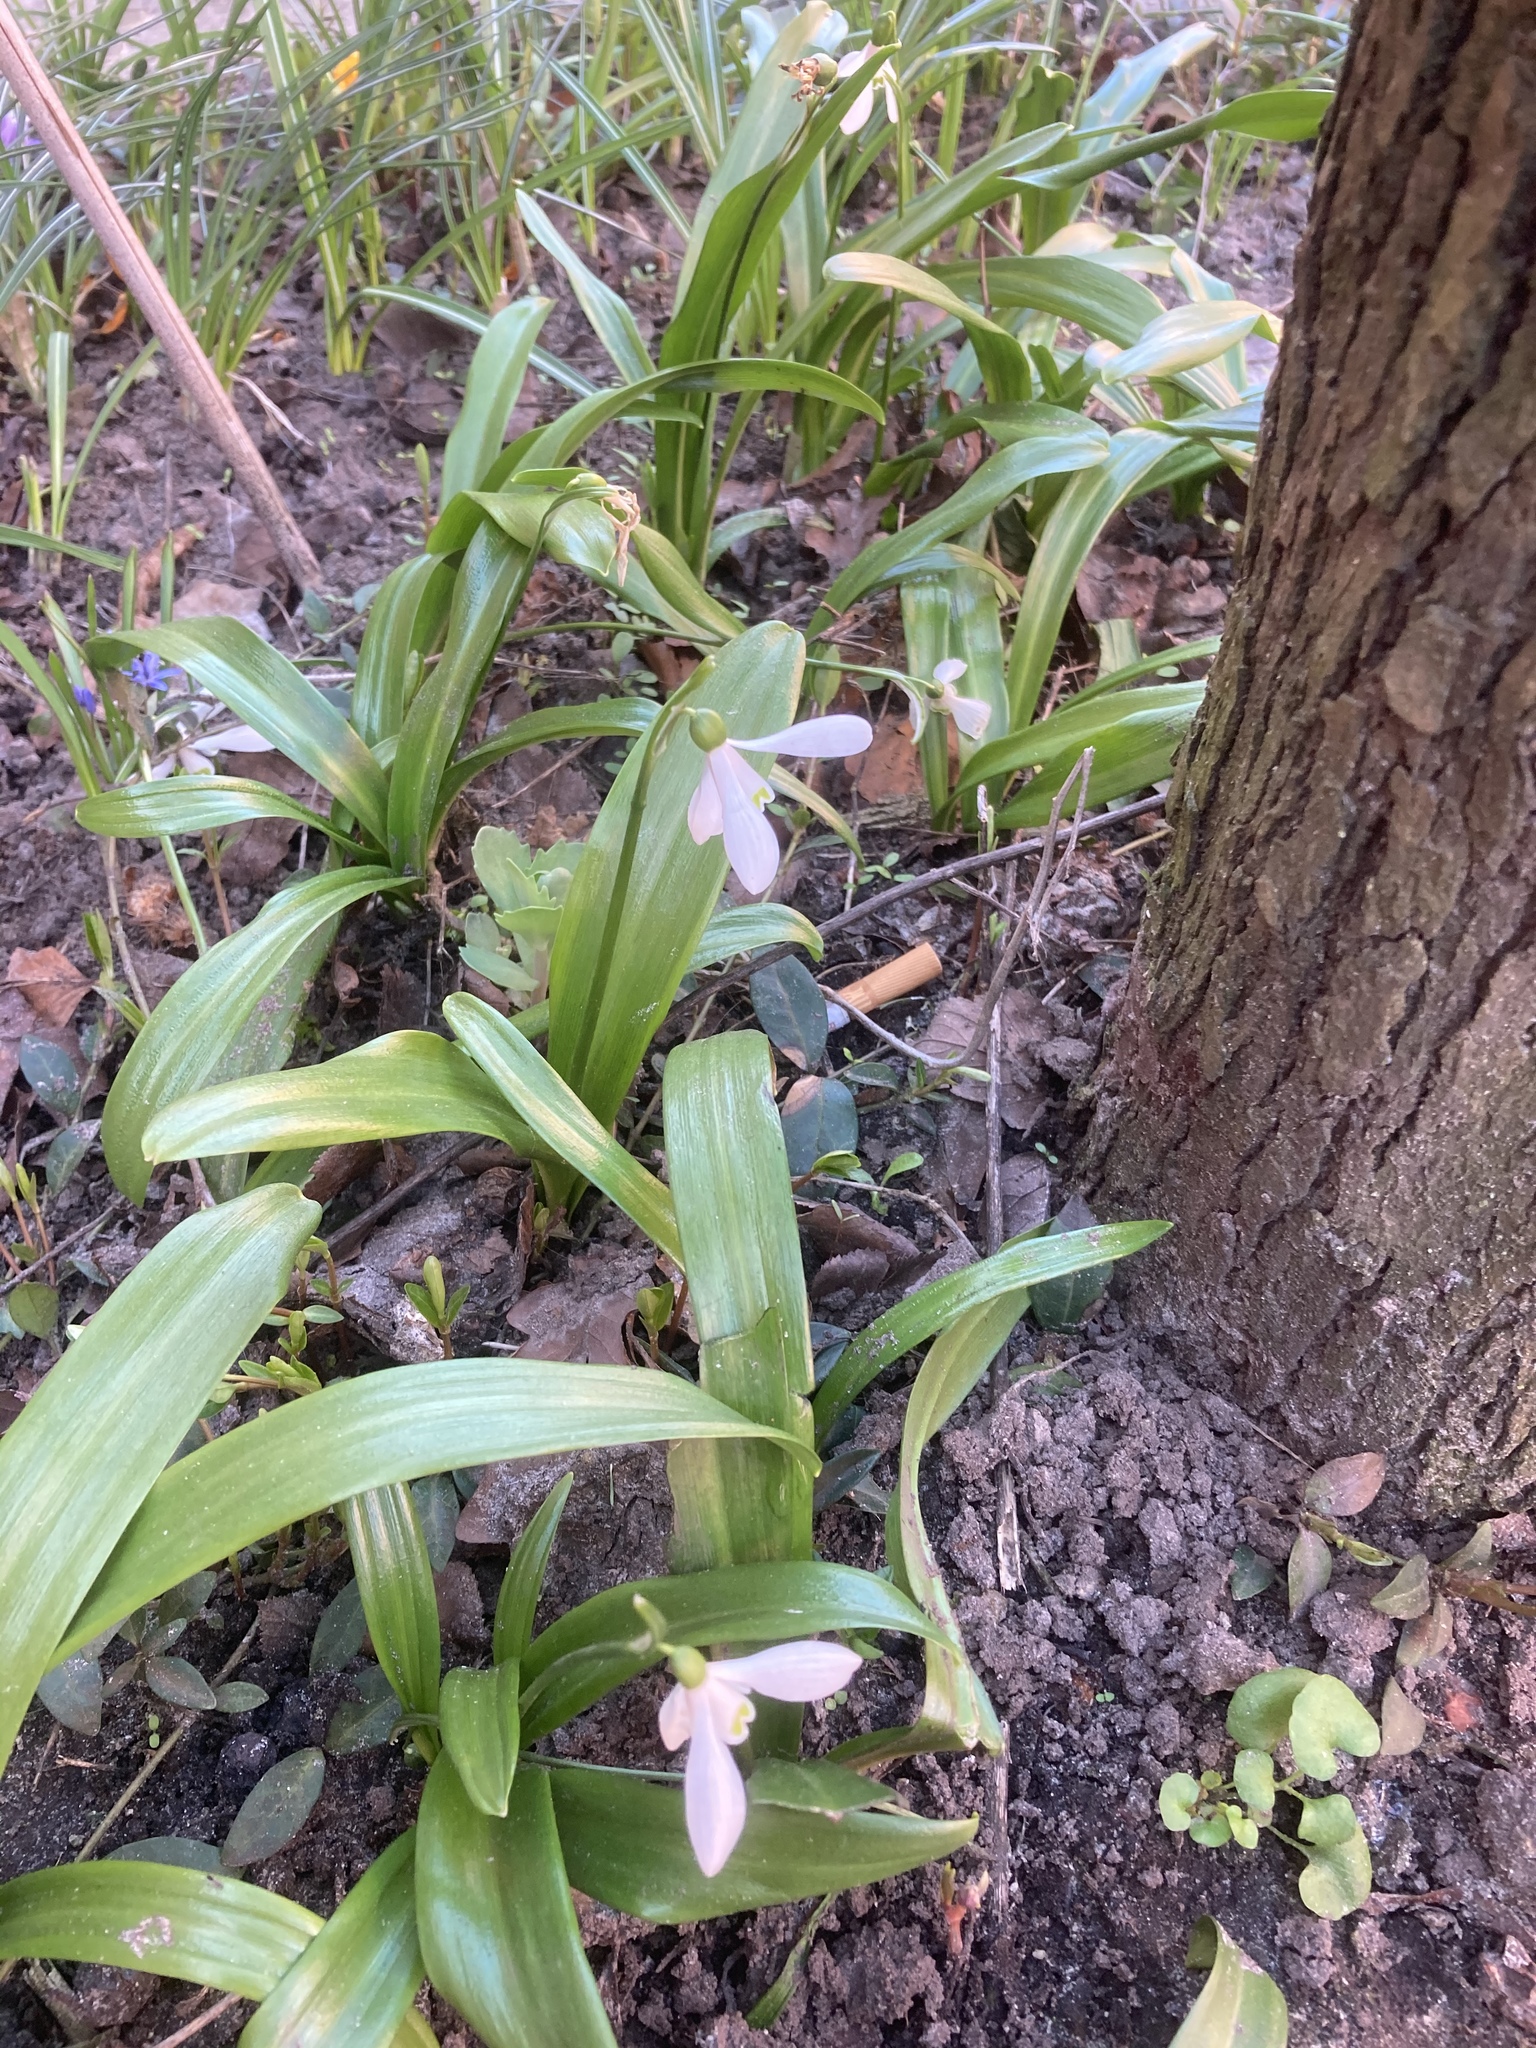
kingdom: Plantae
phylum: Tracheophyta
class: Liliopsida
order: Asparagales
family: Amaryllidaceae
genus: Galanthus
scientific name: Galanthus woronowii
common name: Green snowdrop
